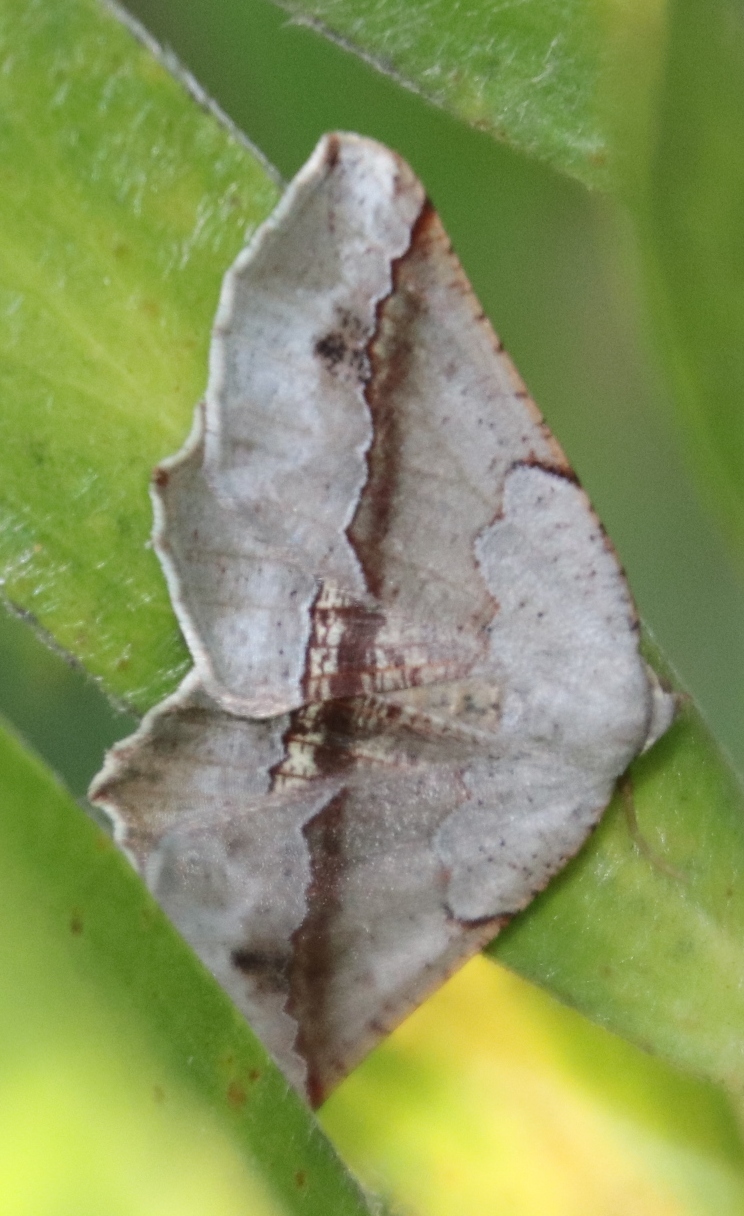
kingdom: Animalia
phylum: Arthropoda
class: Insecta
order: Lepidoptera
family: Geometridae
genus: Drepanogynis
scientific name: Drepanogynis mixtaria
